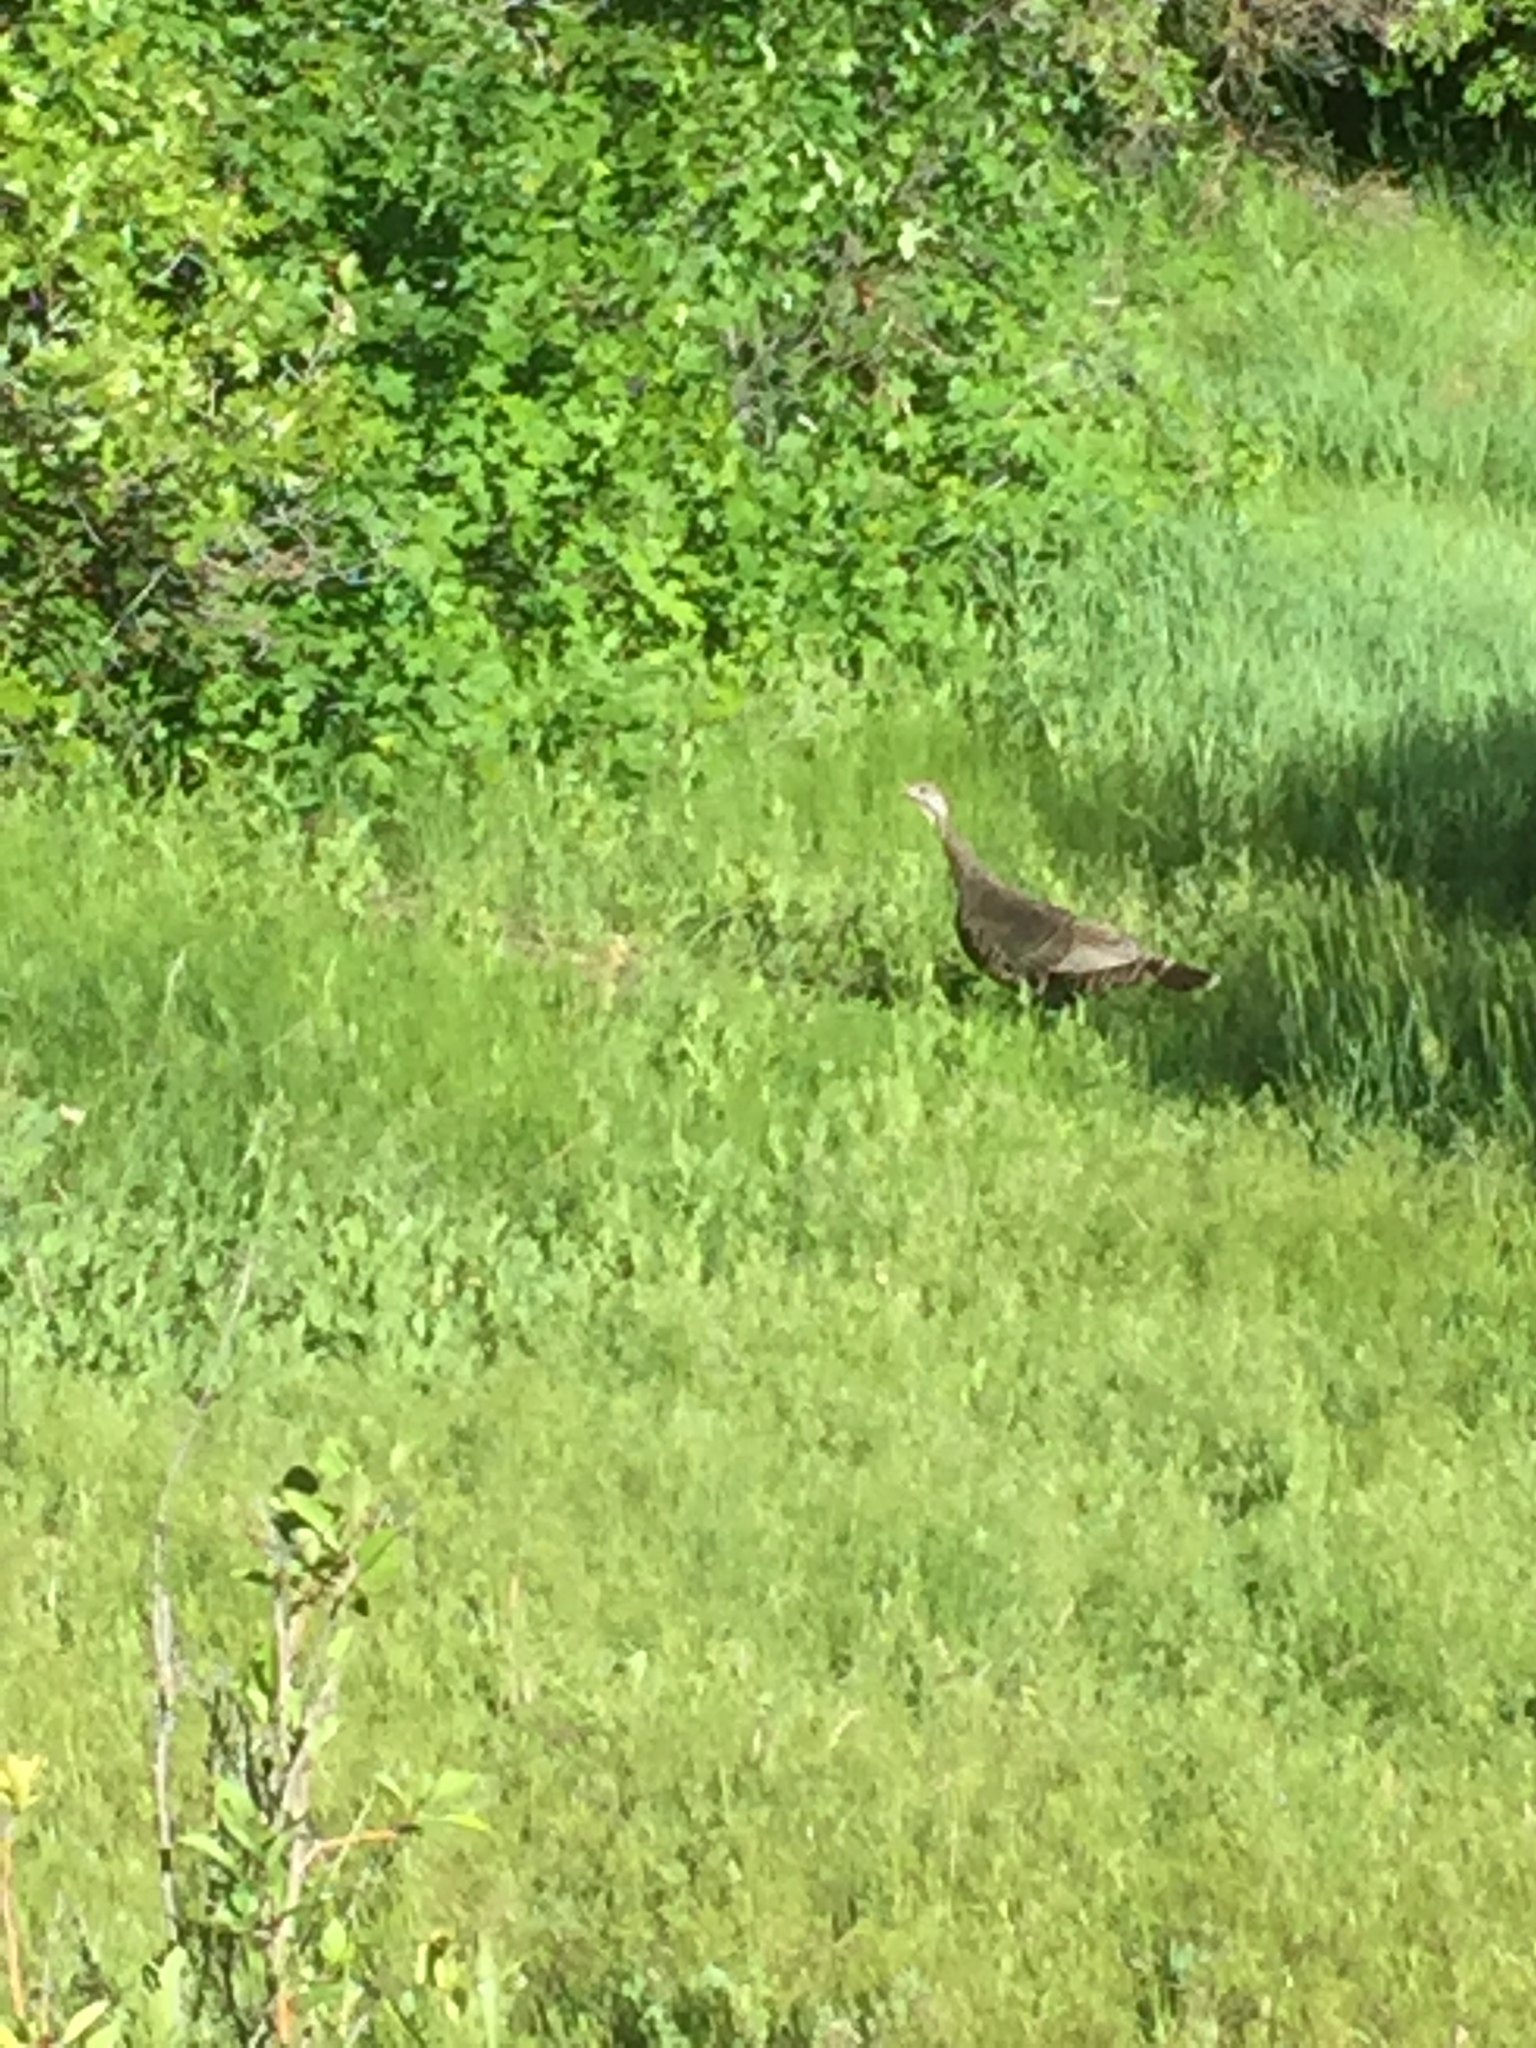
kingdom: Animalia
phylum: Chordata
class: Aves
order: Galliformes
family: Phasianidae
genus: Meleagris
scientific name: Meleagris gallopavo
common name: Wild turkey
